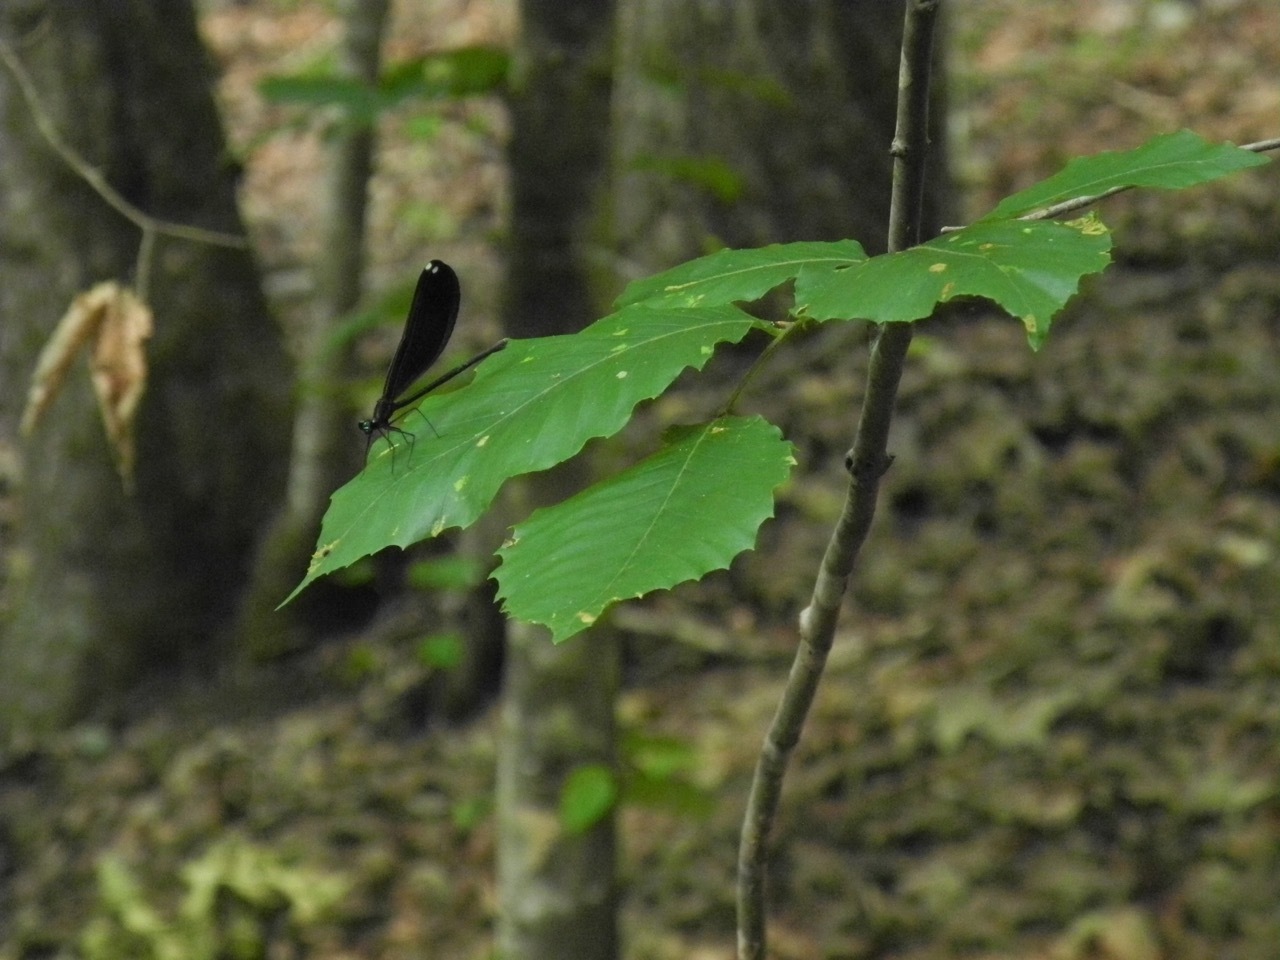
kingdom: Animalia
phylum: Arthropoda
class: Insecta
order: Odonata
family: Calopterygidae
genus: Calopteryx
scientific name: Calopteryx maculata
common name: Ebony jewelwing
